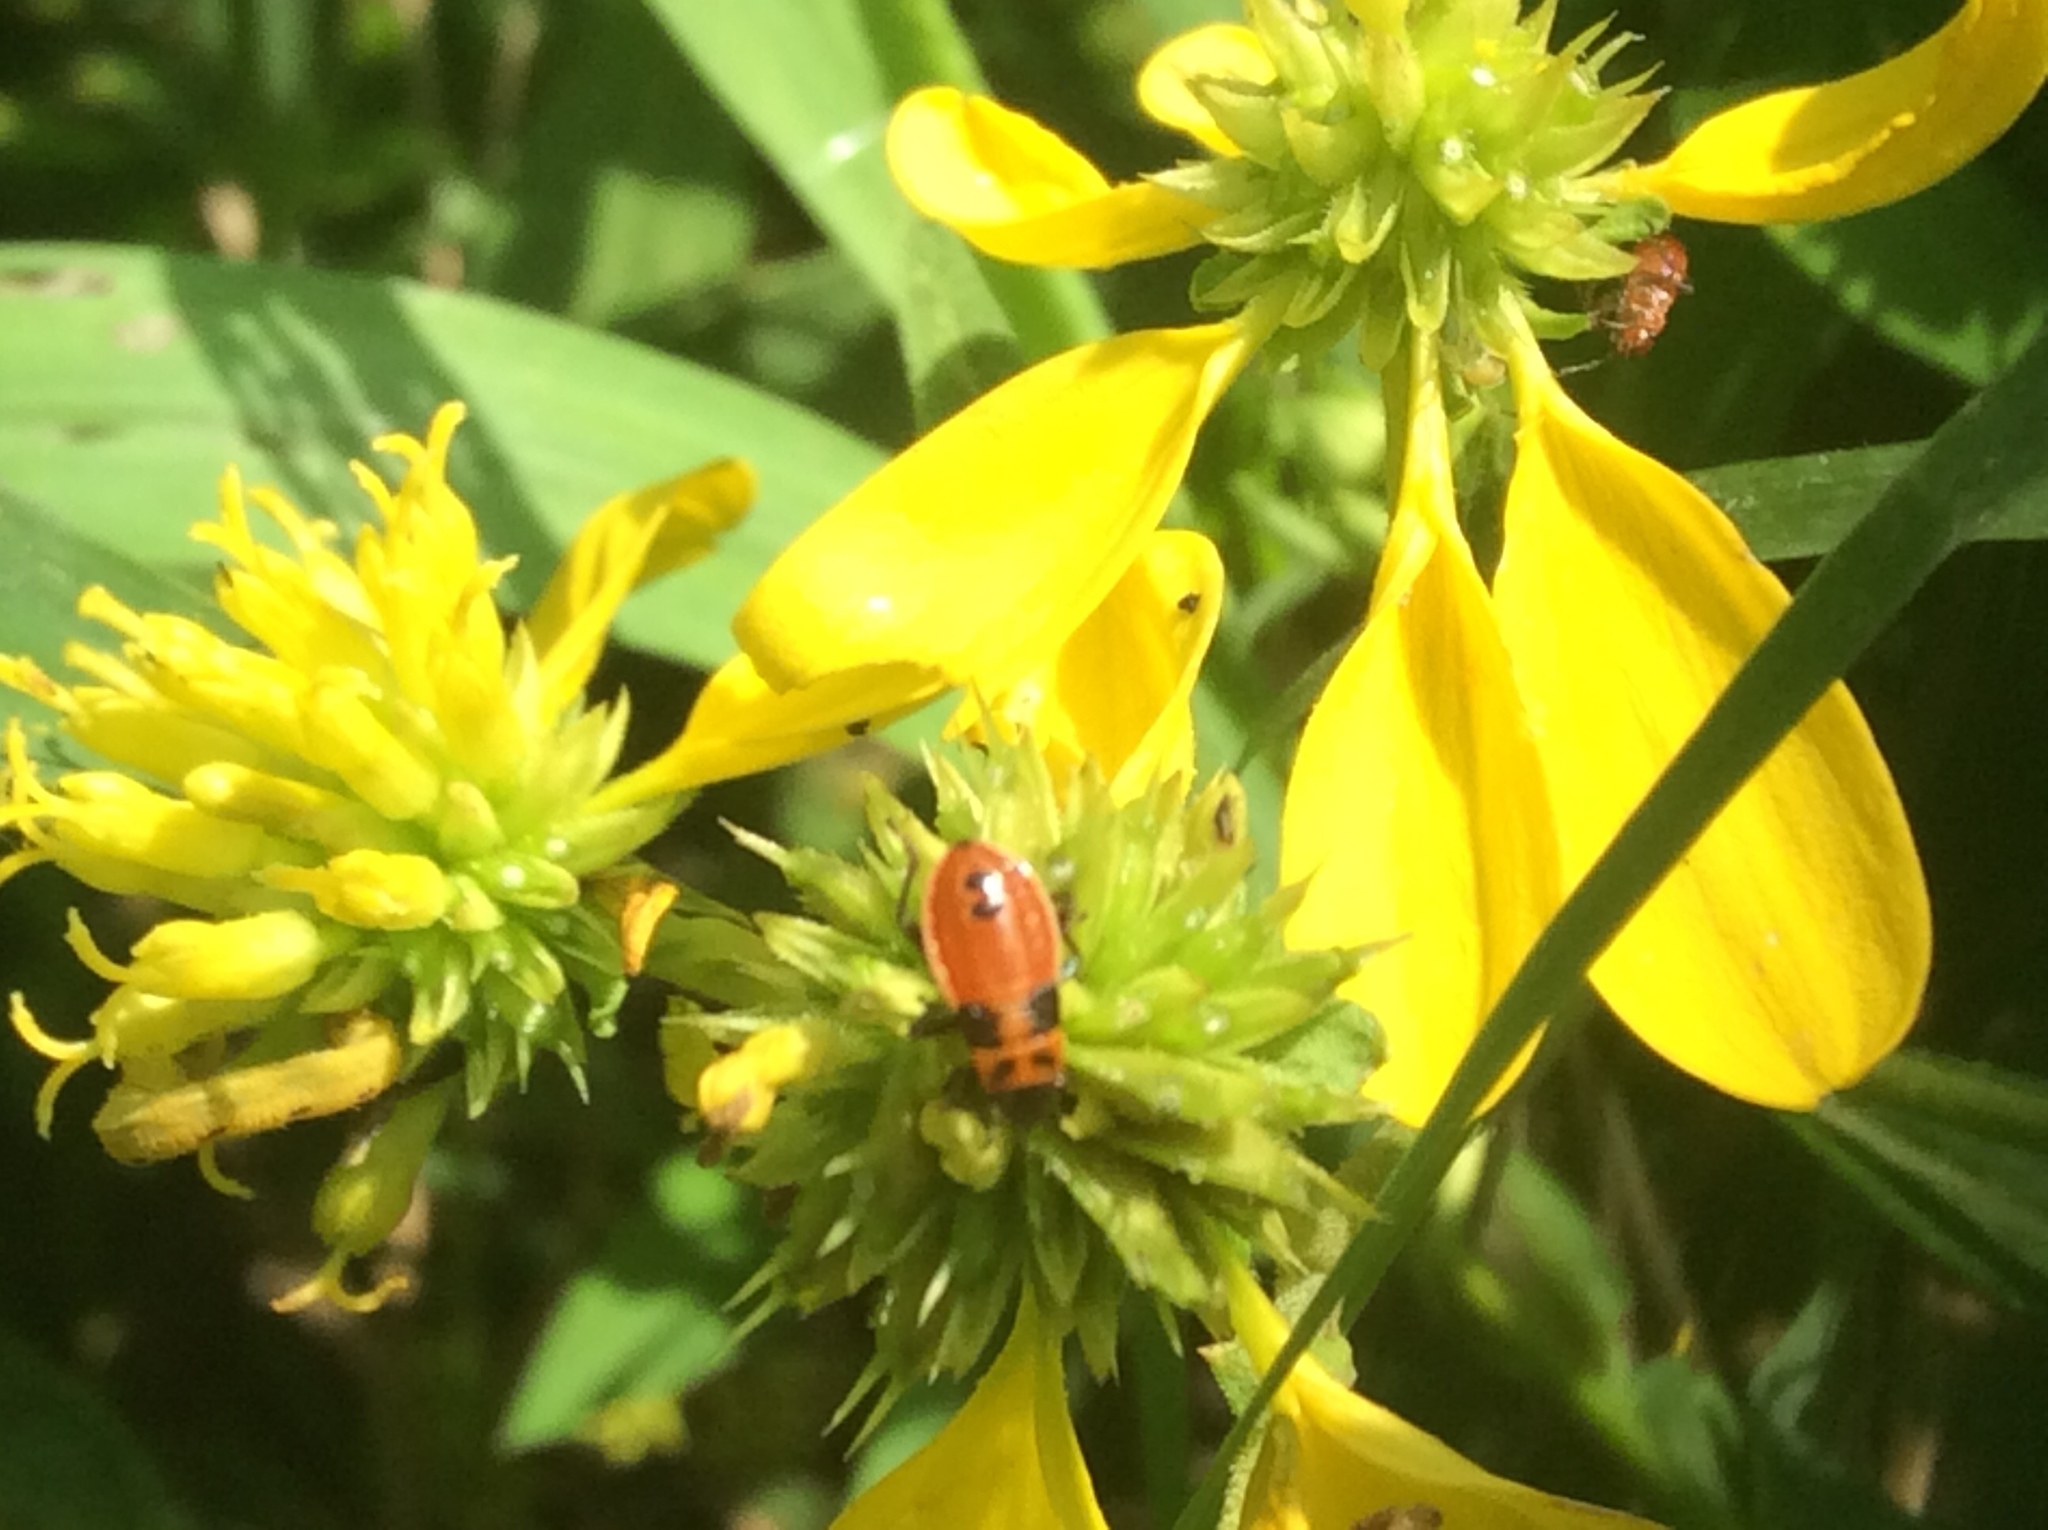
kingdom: Animalia
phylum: Arthropoda
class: Insecta
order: Hemiptera
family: Lygaeidae
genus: Lygaeus
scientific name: Lygaeus turcicus
